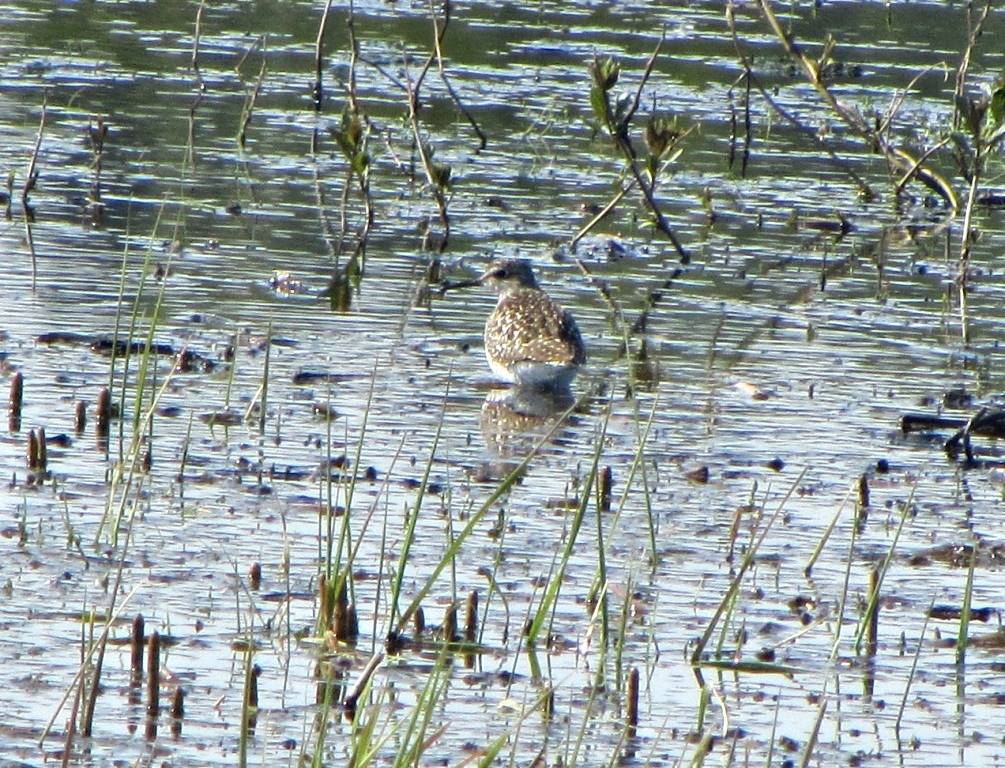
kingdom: Animalia
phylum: Chordata
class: Aves
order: Charadriiformes
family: Scolopacidae
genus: Tringa
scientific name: Tringa glareola
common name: Wood sandpiper
